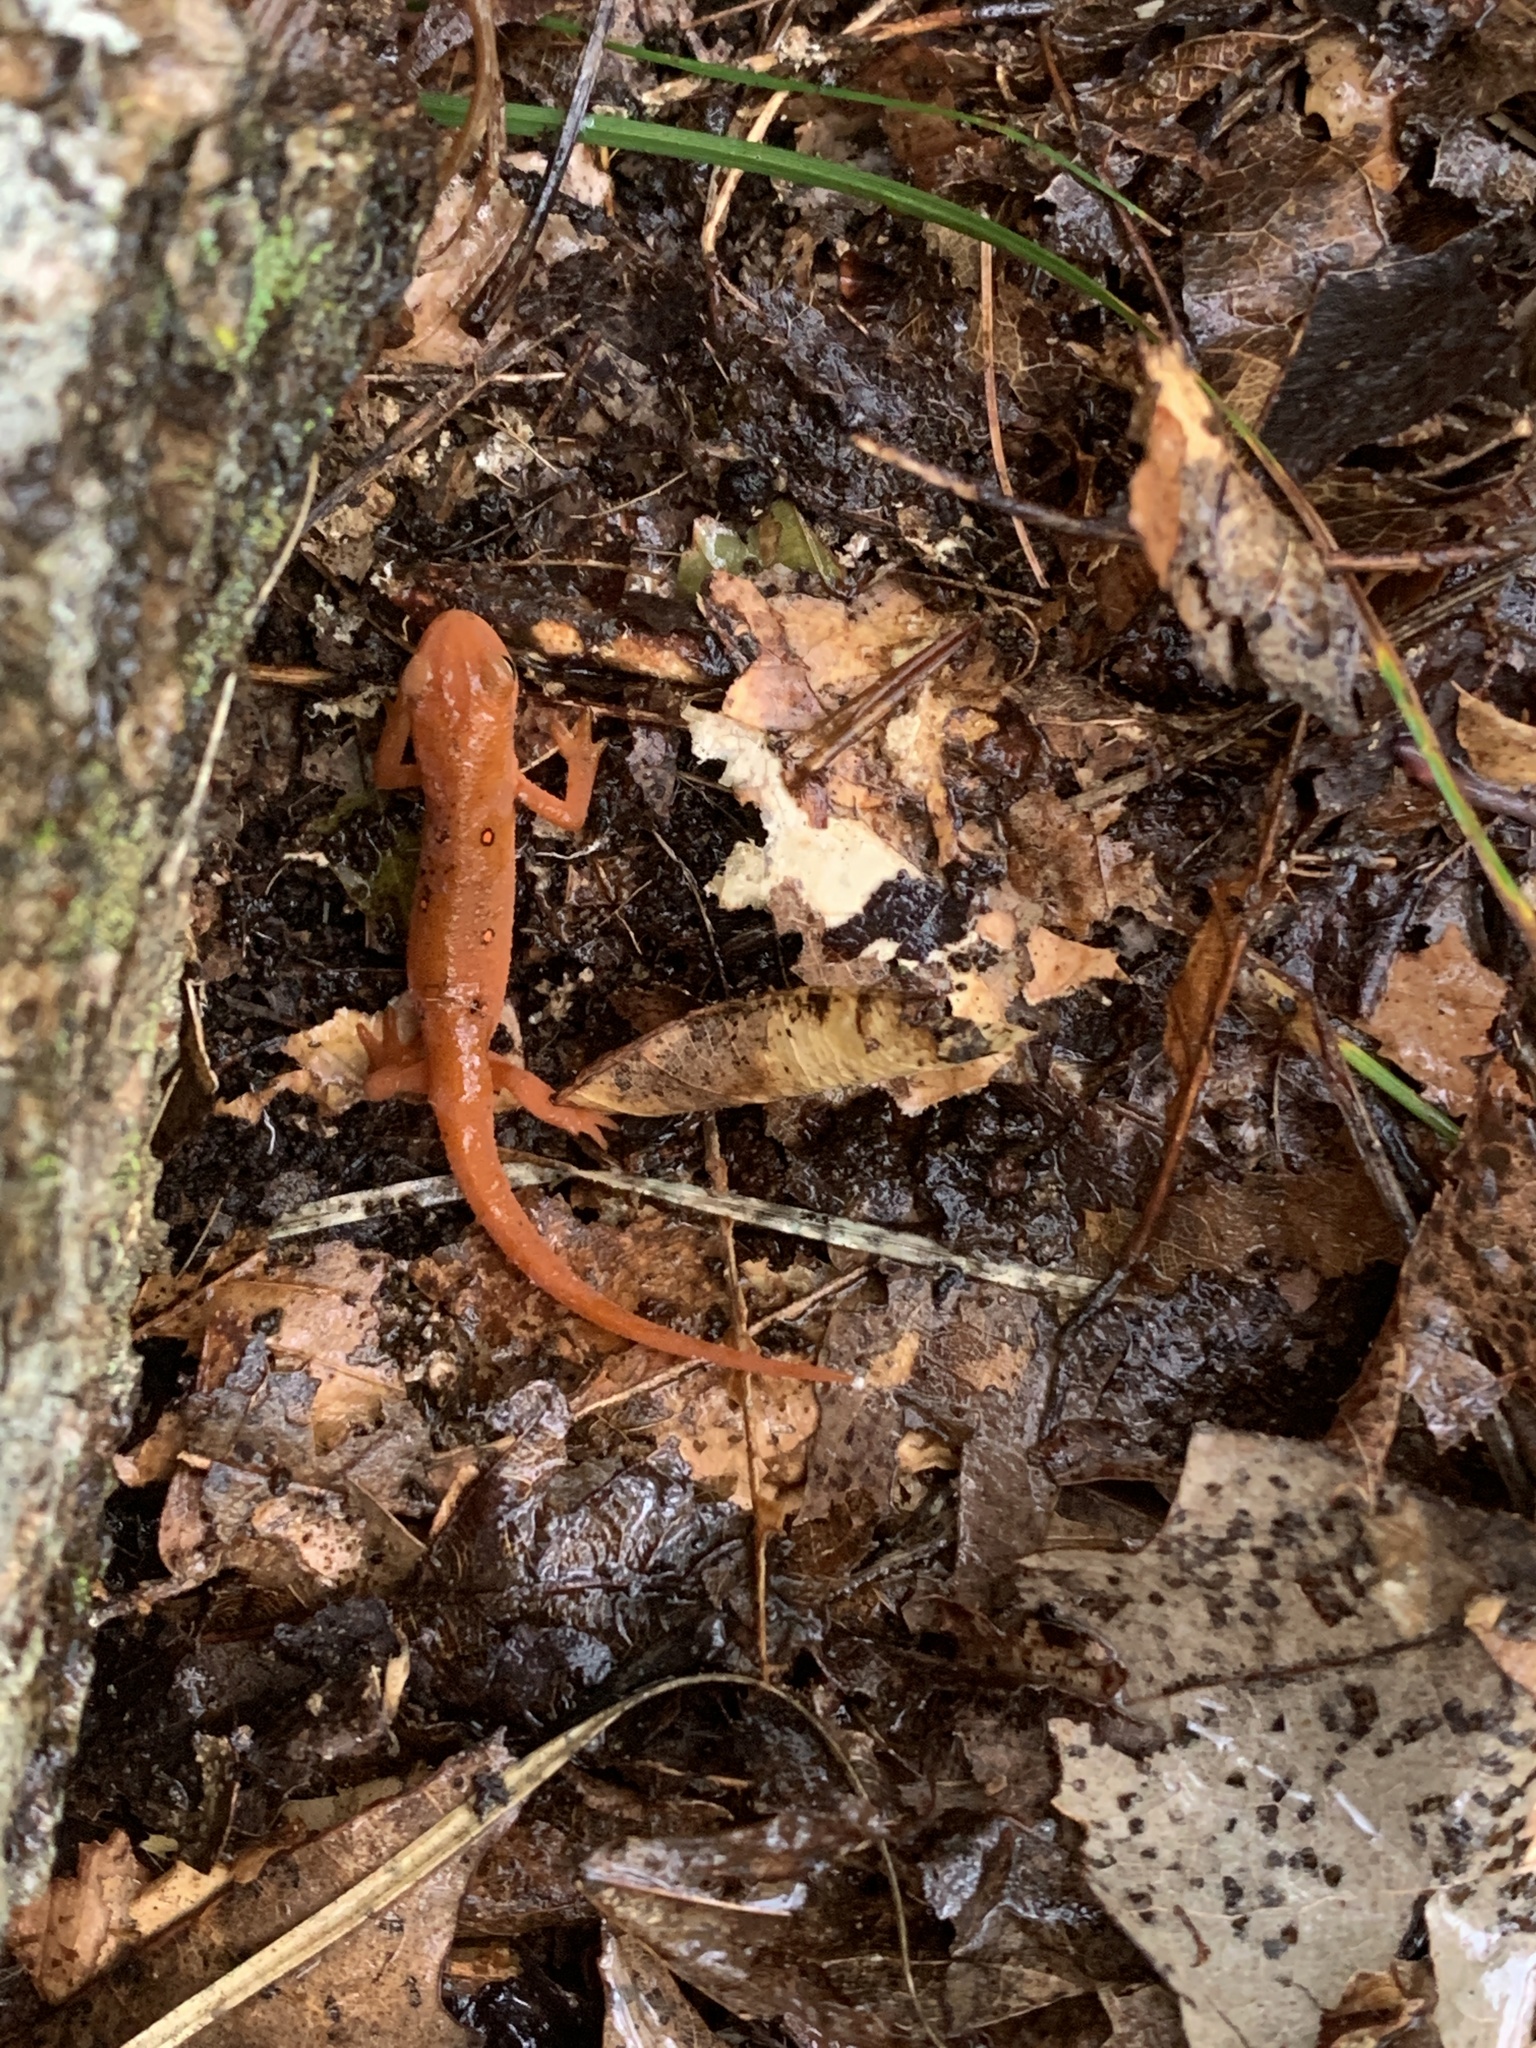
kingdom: Animalia
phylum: Chordata
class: Amphibia
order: Caudata
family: Salamandridae
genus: Notophthalmus
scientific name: Notophthalmus viridescens
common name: Eastern newt
